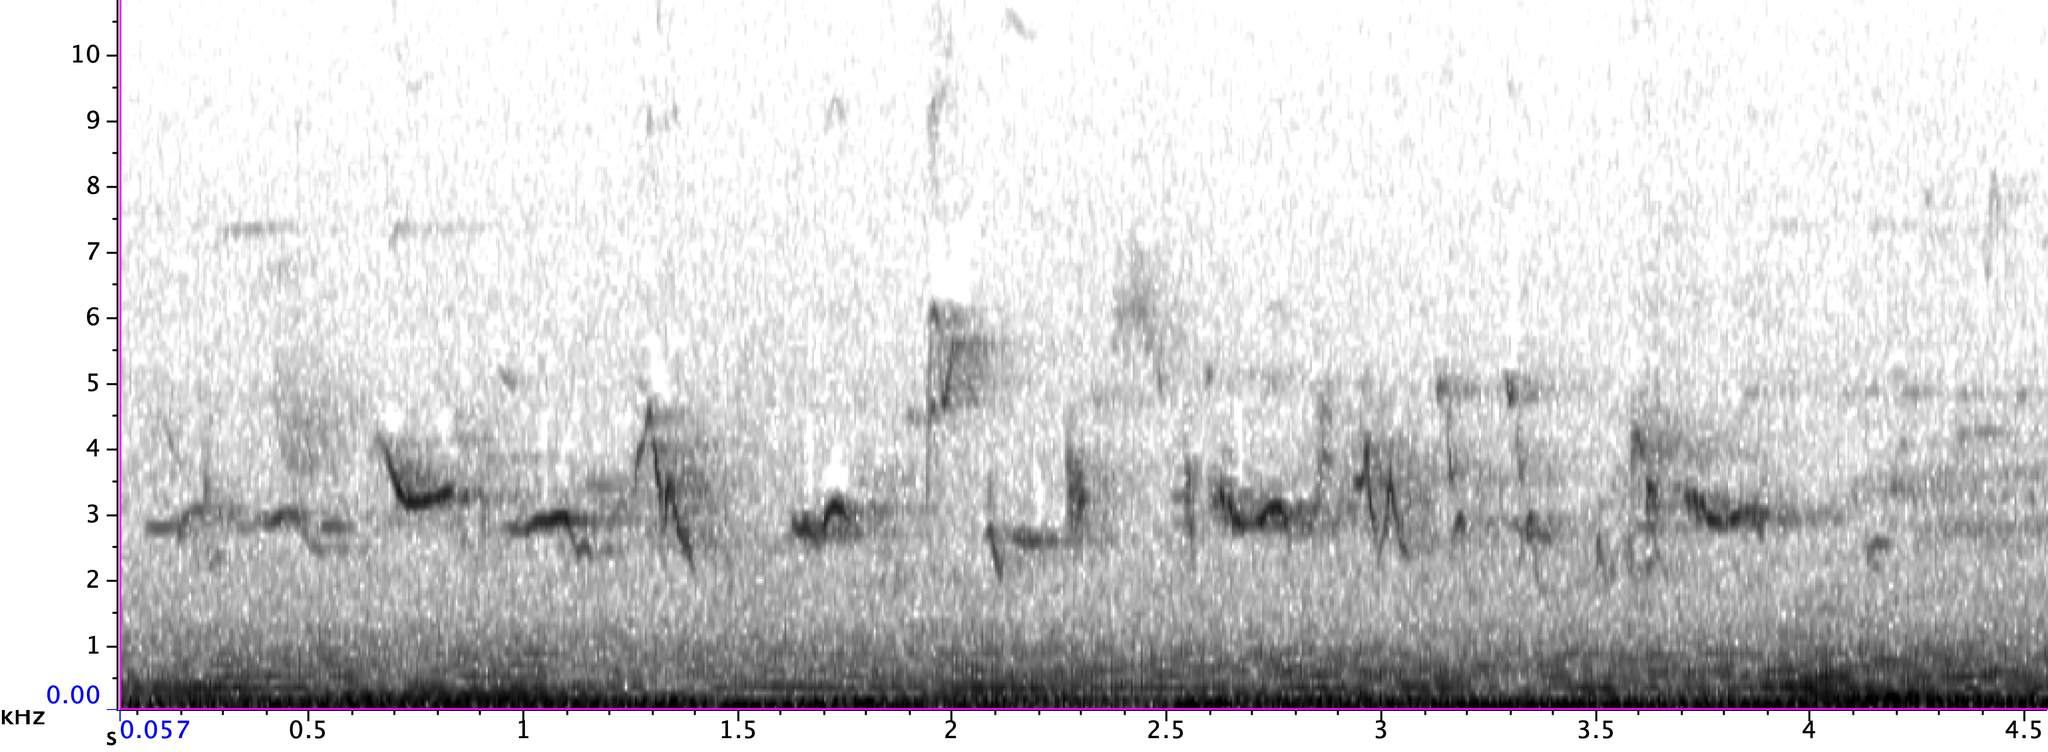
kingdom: Animalia
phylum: Chordata
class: Aves
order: Passeriformes
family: Mimidae
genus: Dumetella
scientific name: Dumetella carolinensis
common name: Gray catbird
